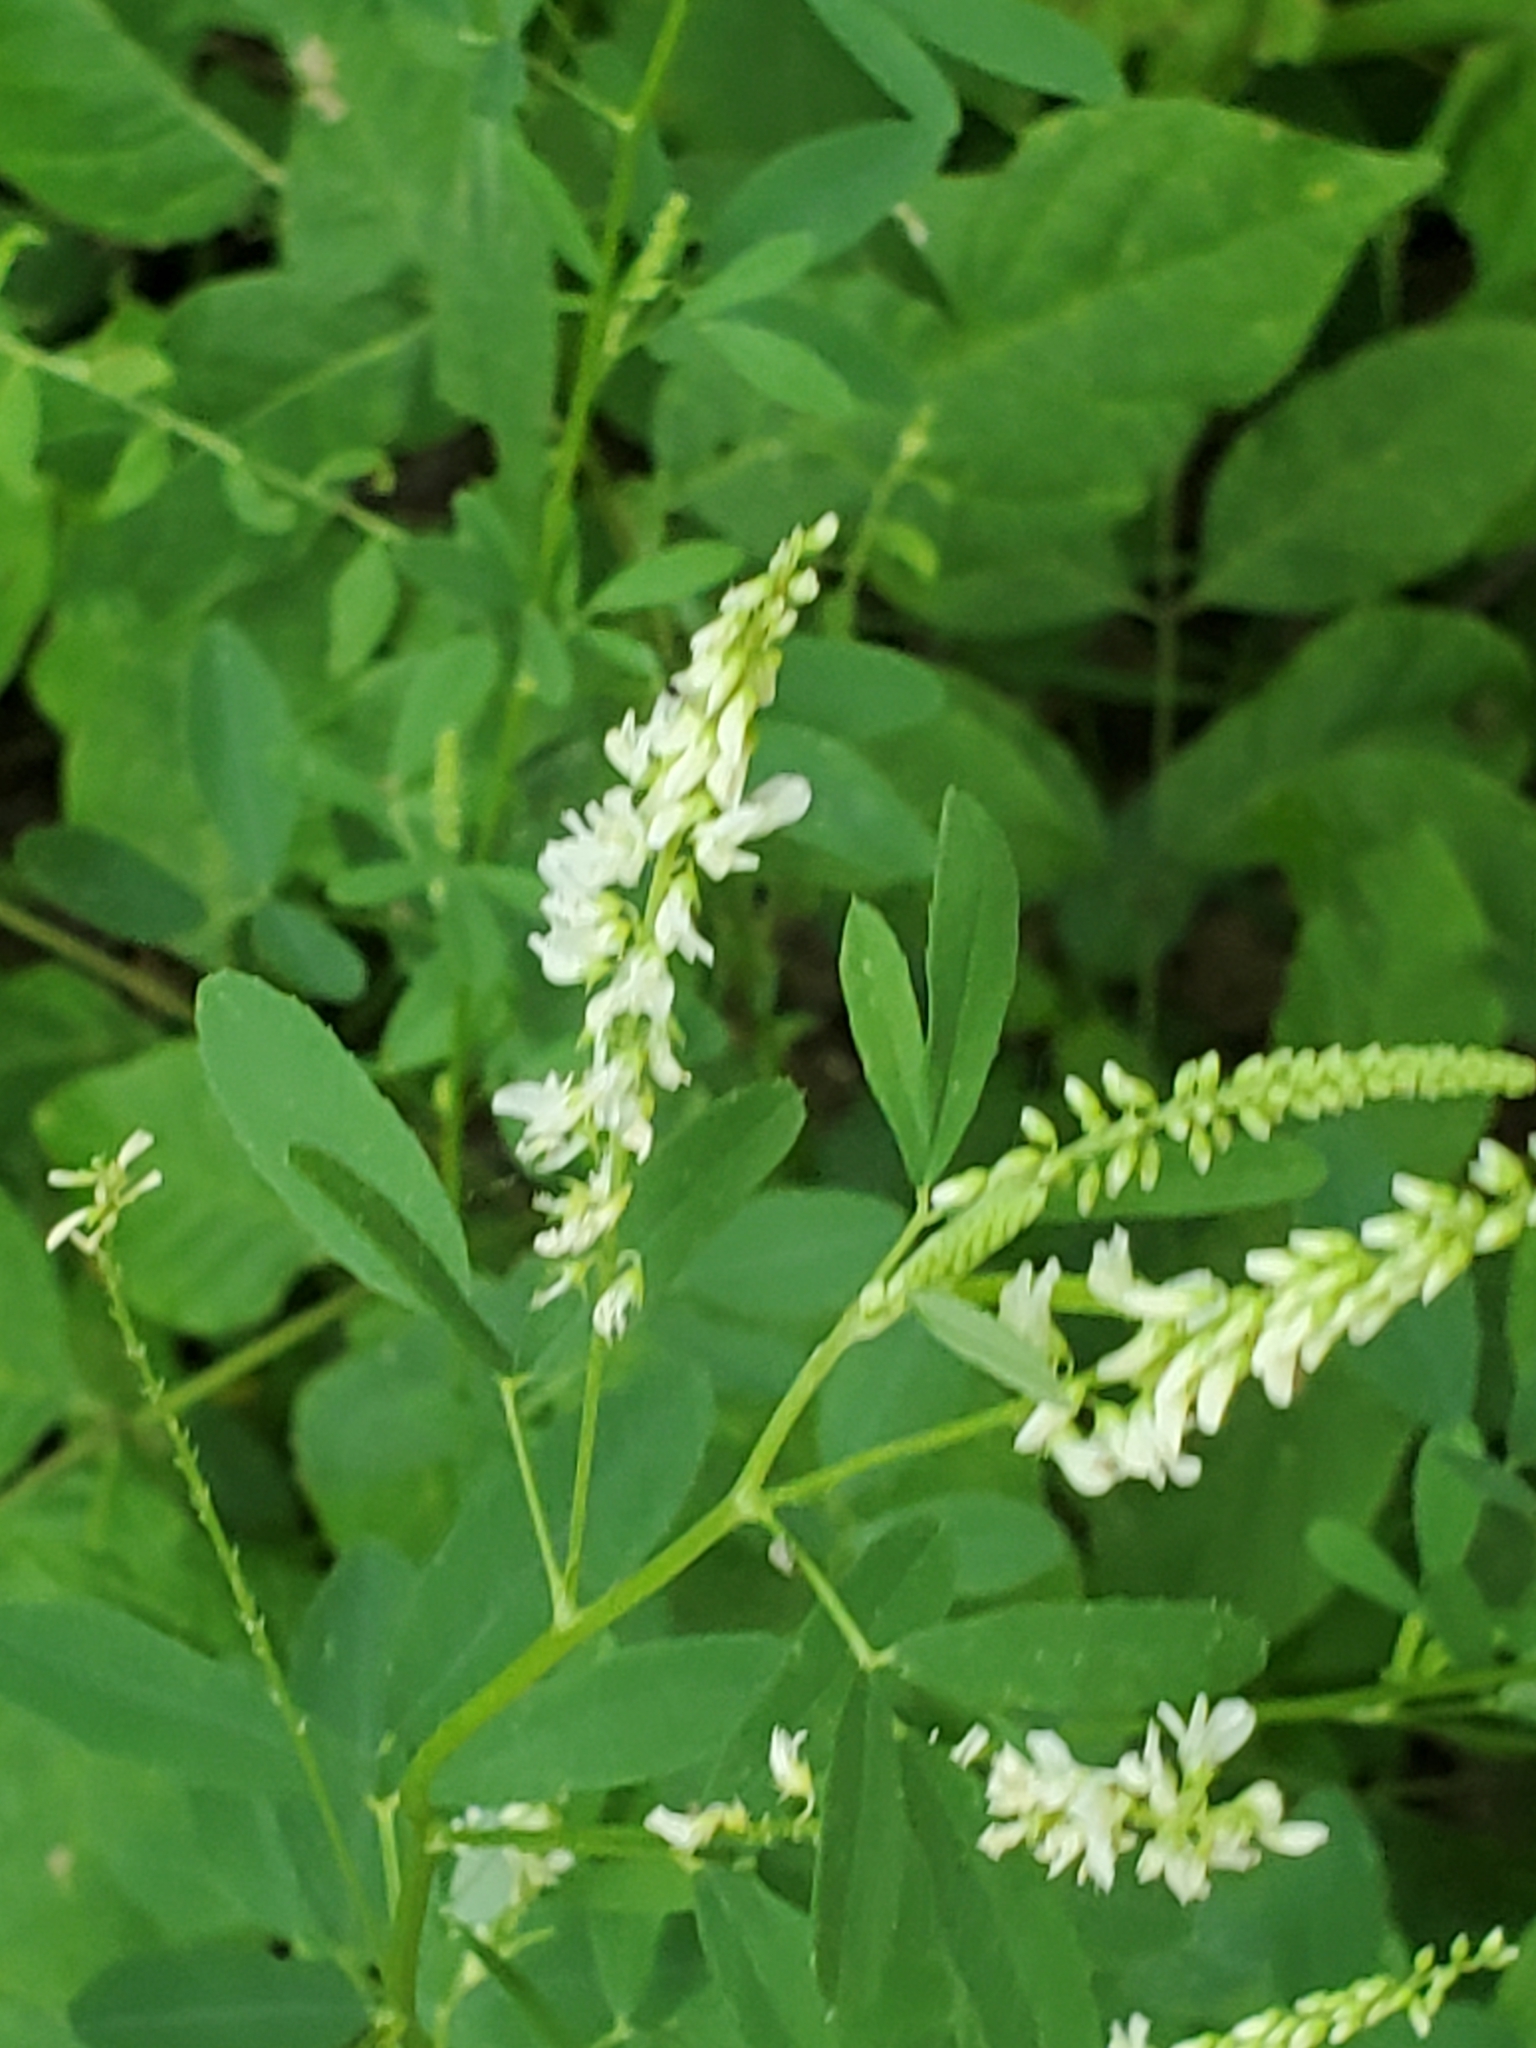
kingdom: Plantae
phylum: Tracheophyta
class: Magnoliopsida
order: Fabales
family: Fabaceae
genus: Melilotus
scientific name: Melilotus albus
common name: White melilot
